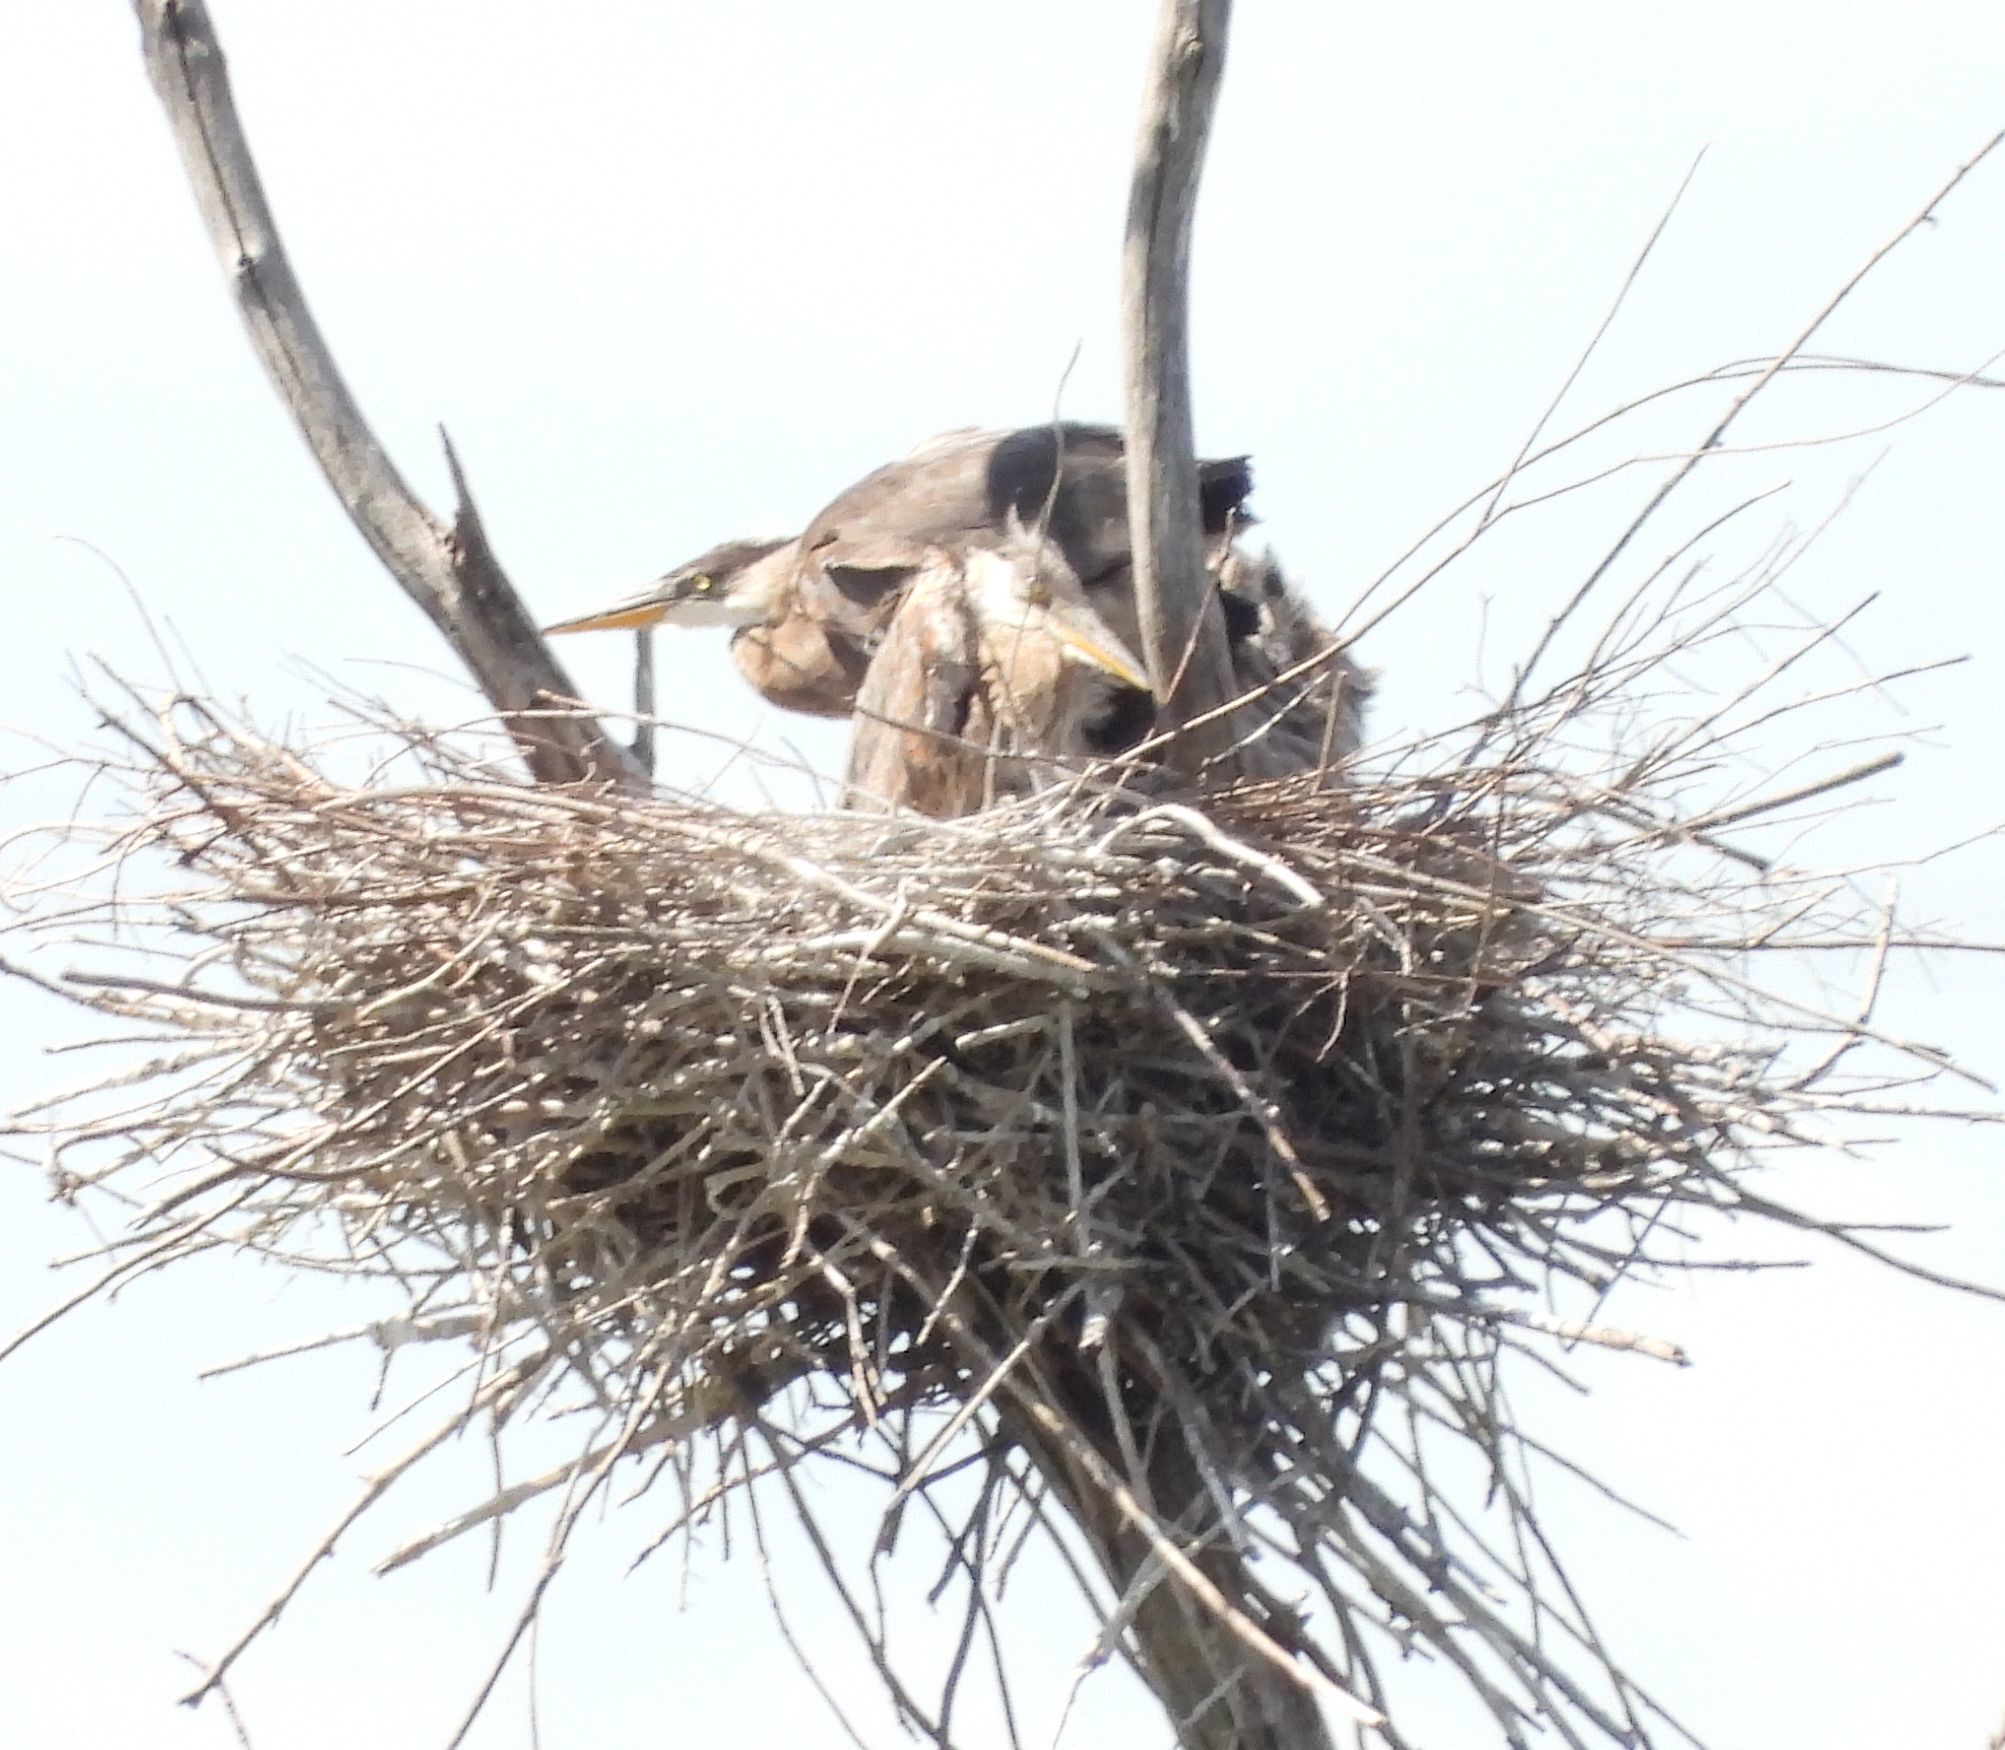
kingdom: Animalia
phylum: Chordata
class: Aves
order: Pelecaniformes
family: Ardeidae
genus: Ardea
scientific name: Ardea herodias
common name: Great blue heron
